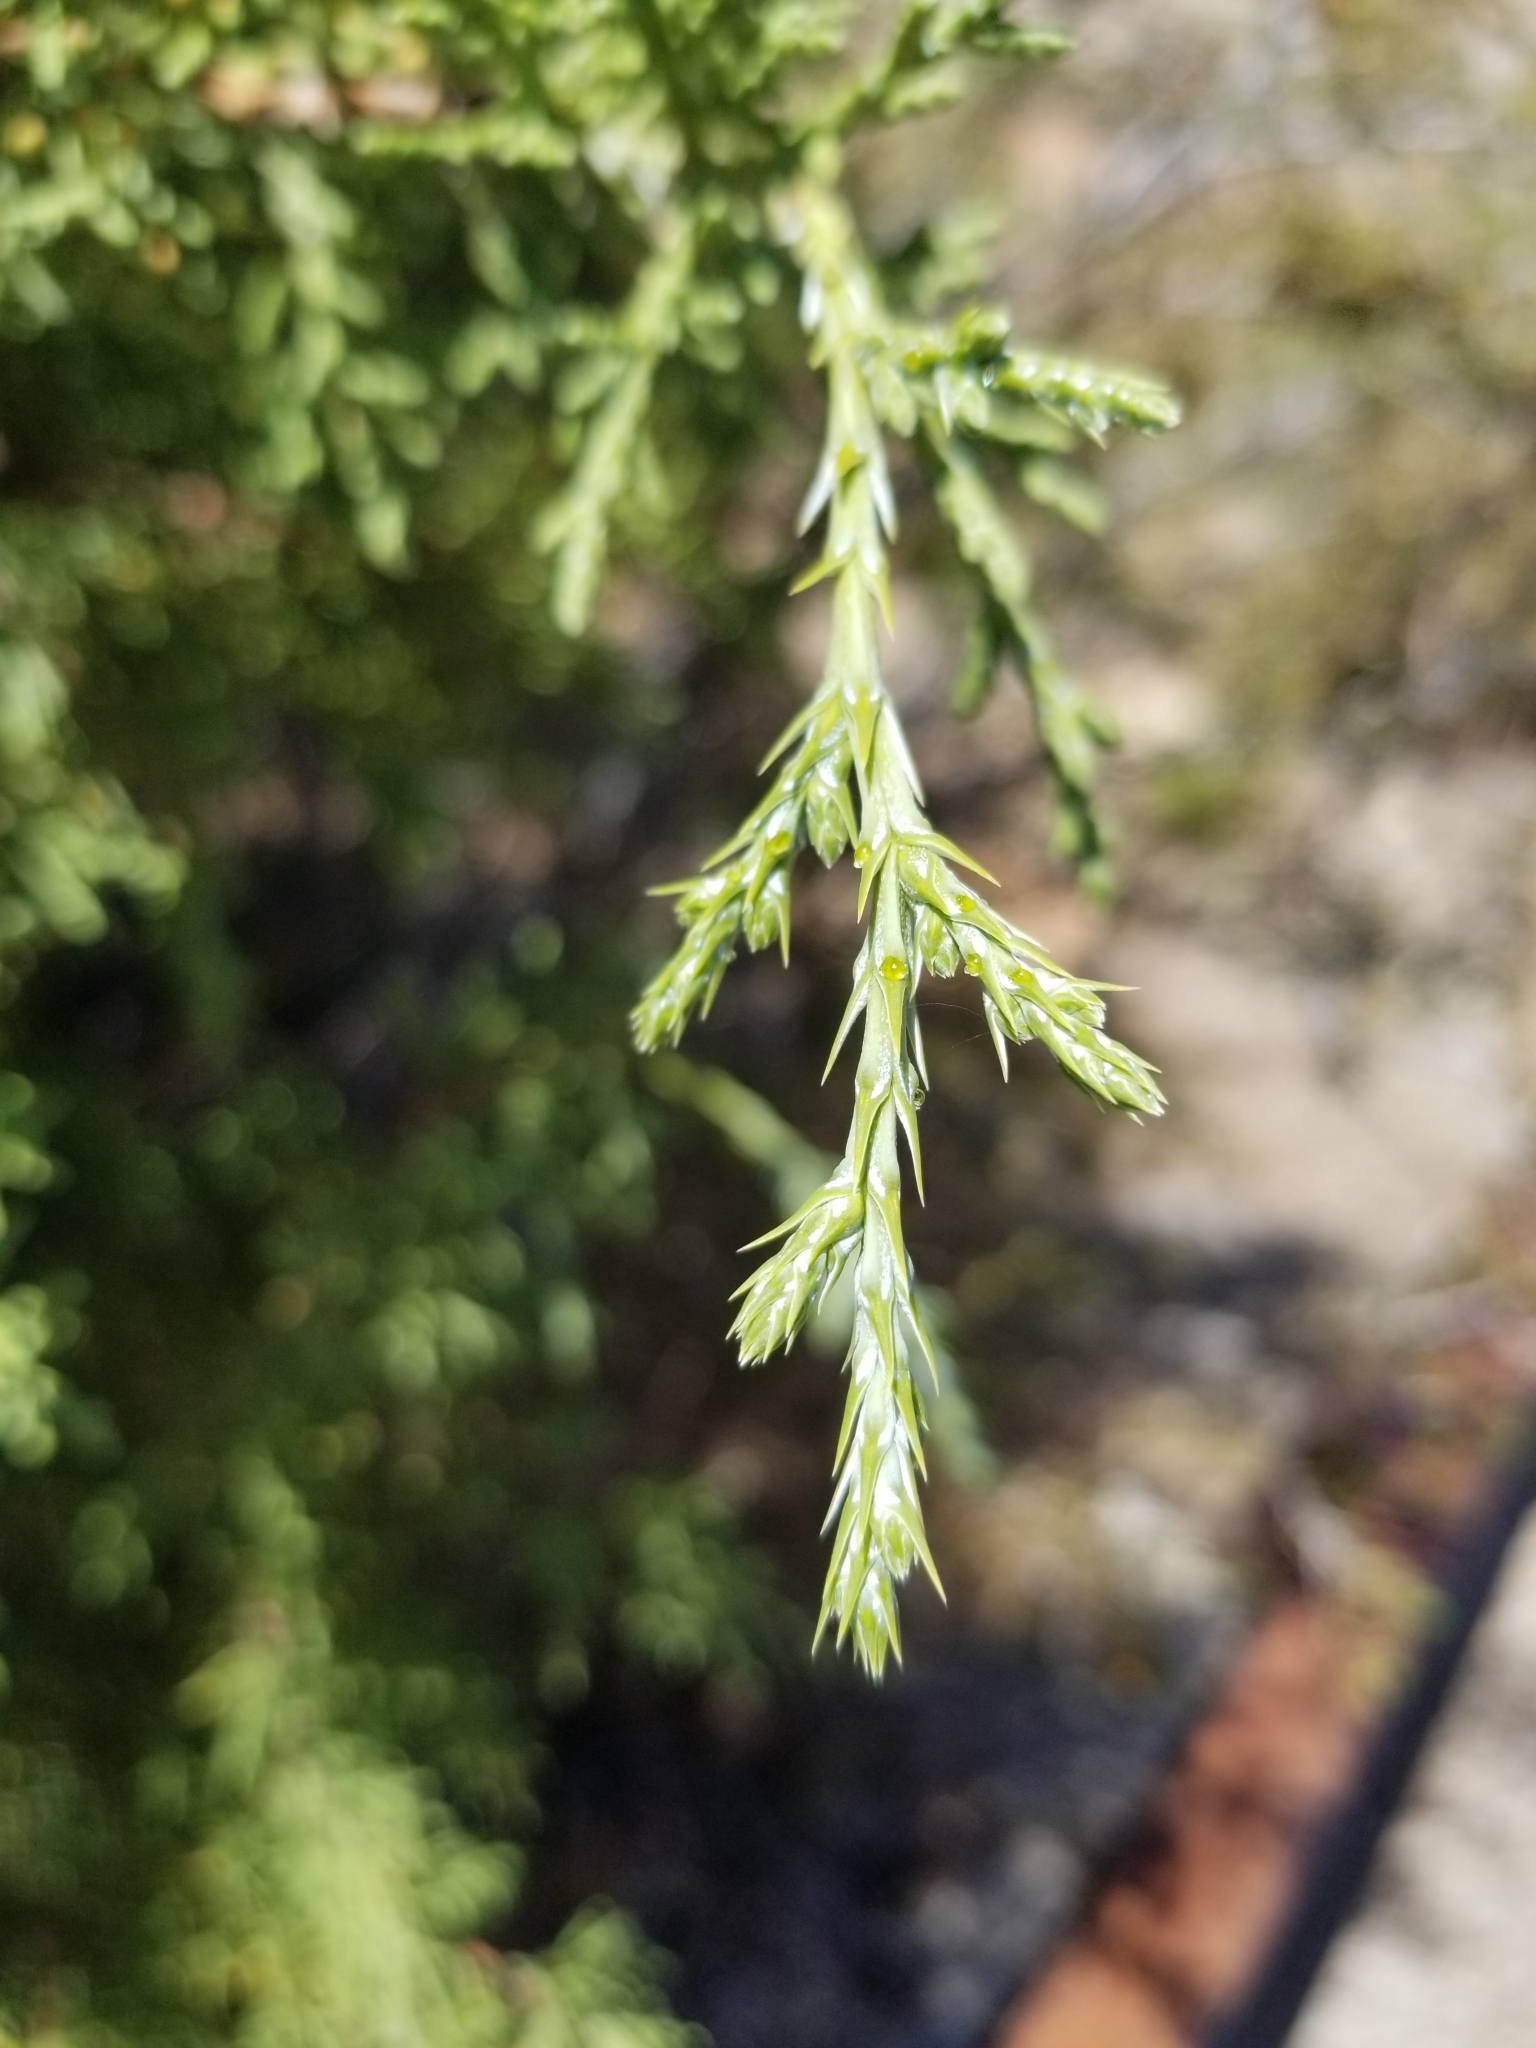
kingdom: Plantae
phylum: Tracheophyta
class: Pinopsida
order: Pinales
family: Cupressaceae
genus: Juniperus
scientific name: Juniperus osteosperma
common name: Utah juniper
